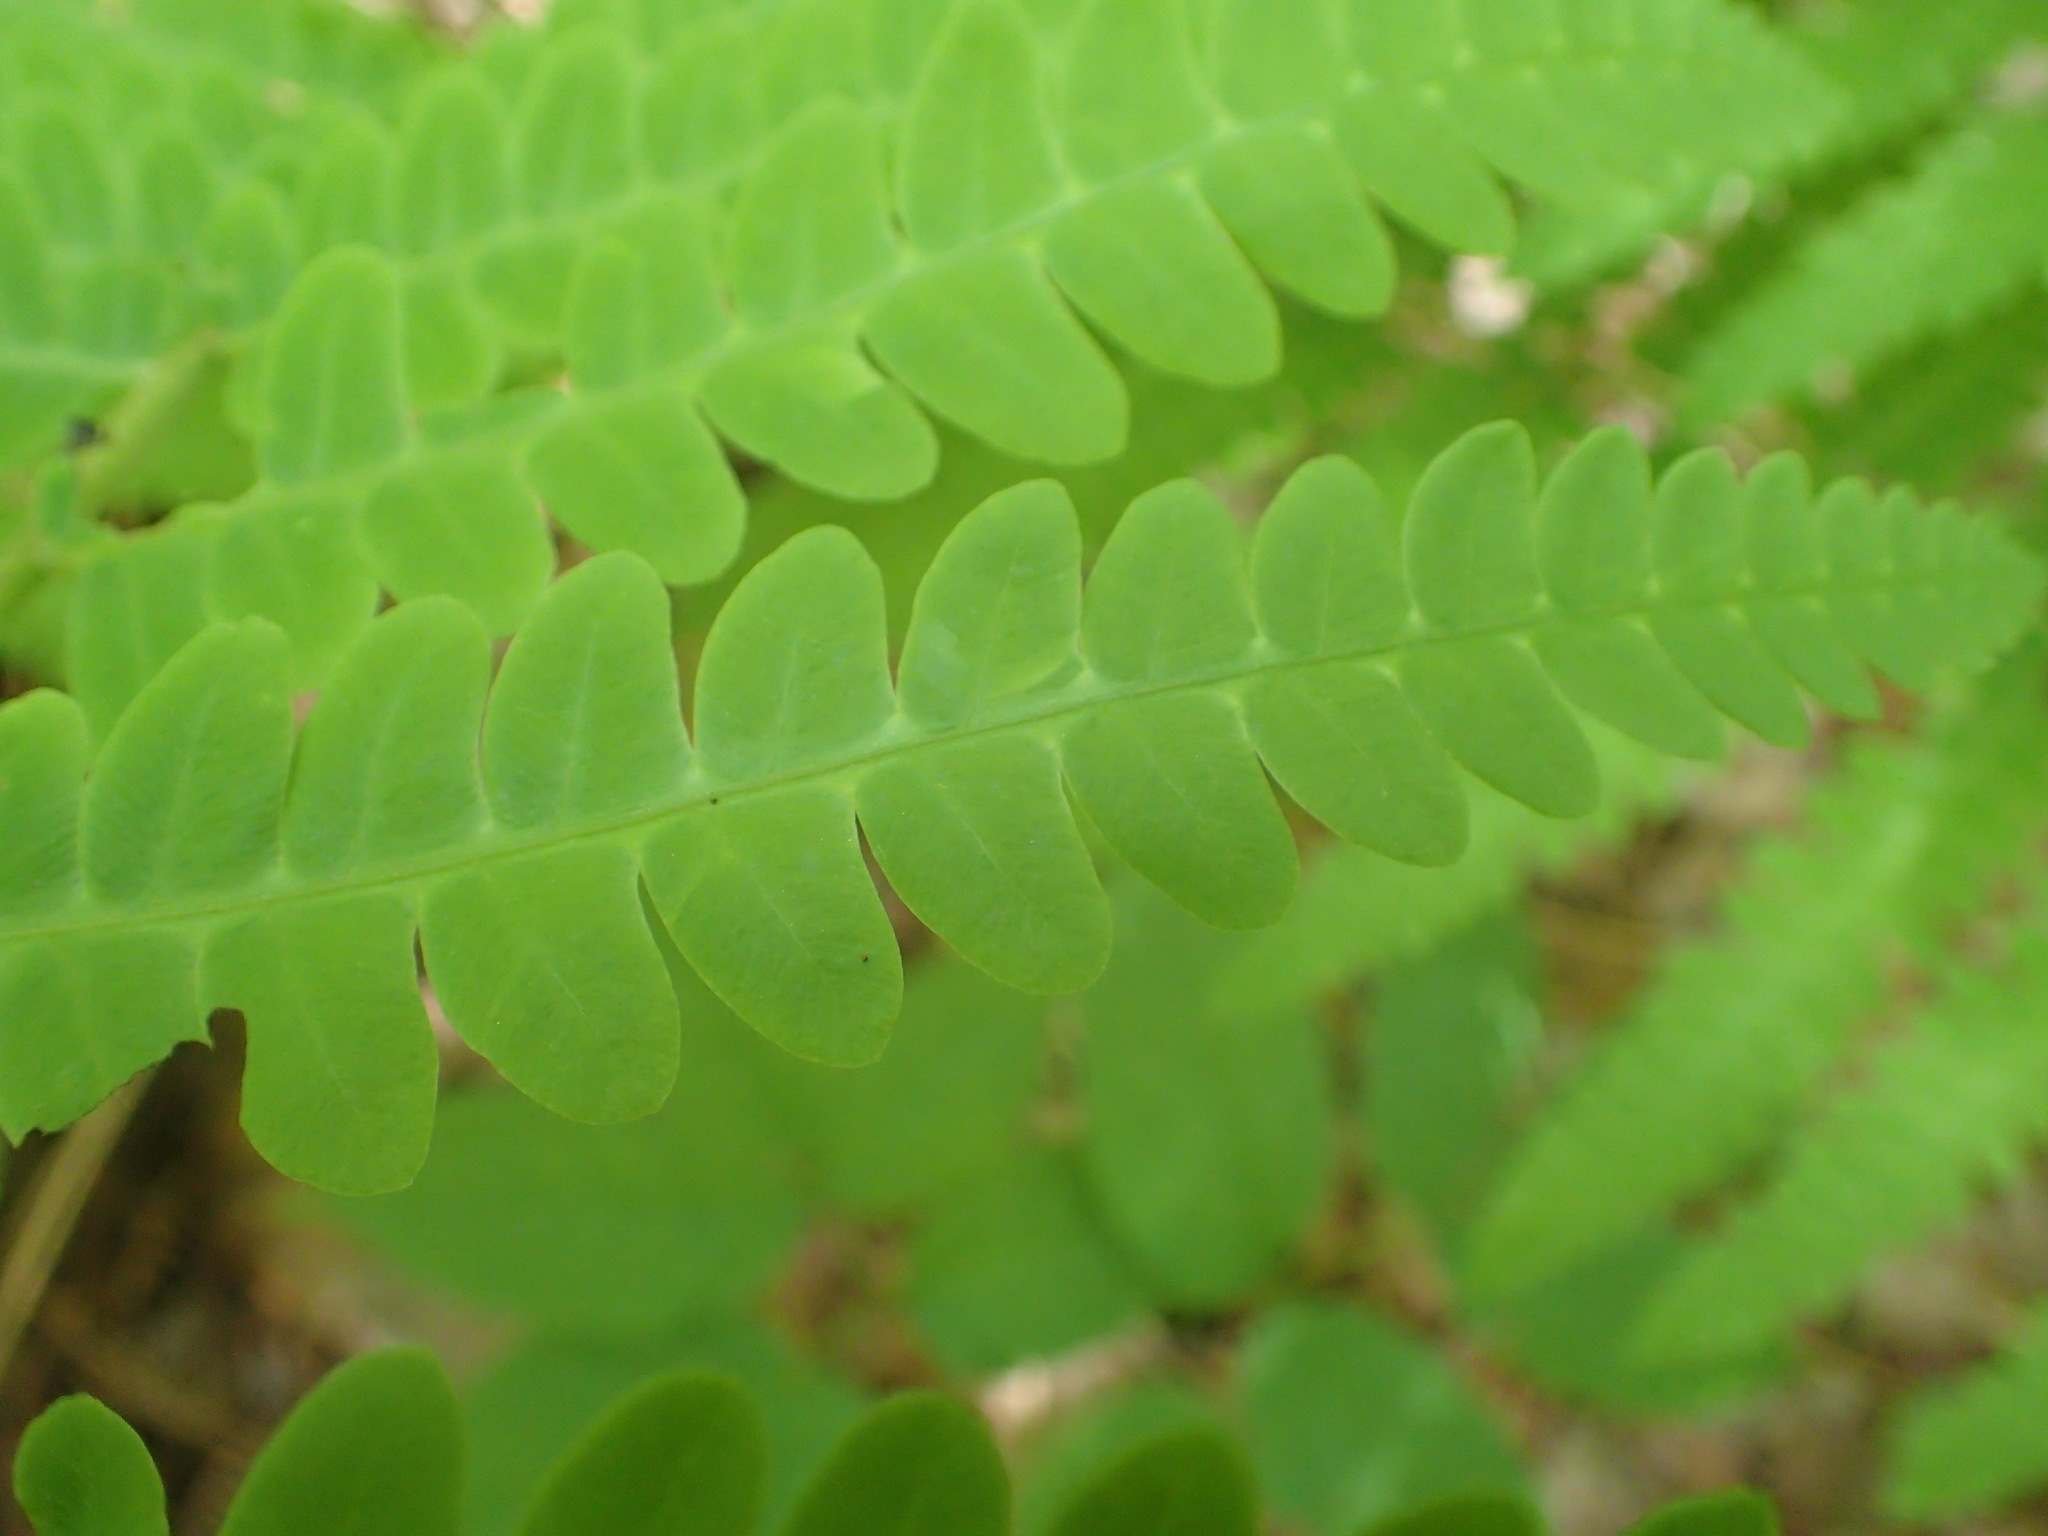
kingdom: Plantae
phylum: Tracheophyta
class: Polypodiopsida
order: Osmundales
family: Osmundaceae
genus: Claytosmunda
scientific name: Claytosmunda claytoniana
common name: Clayton's fern
